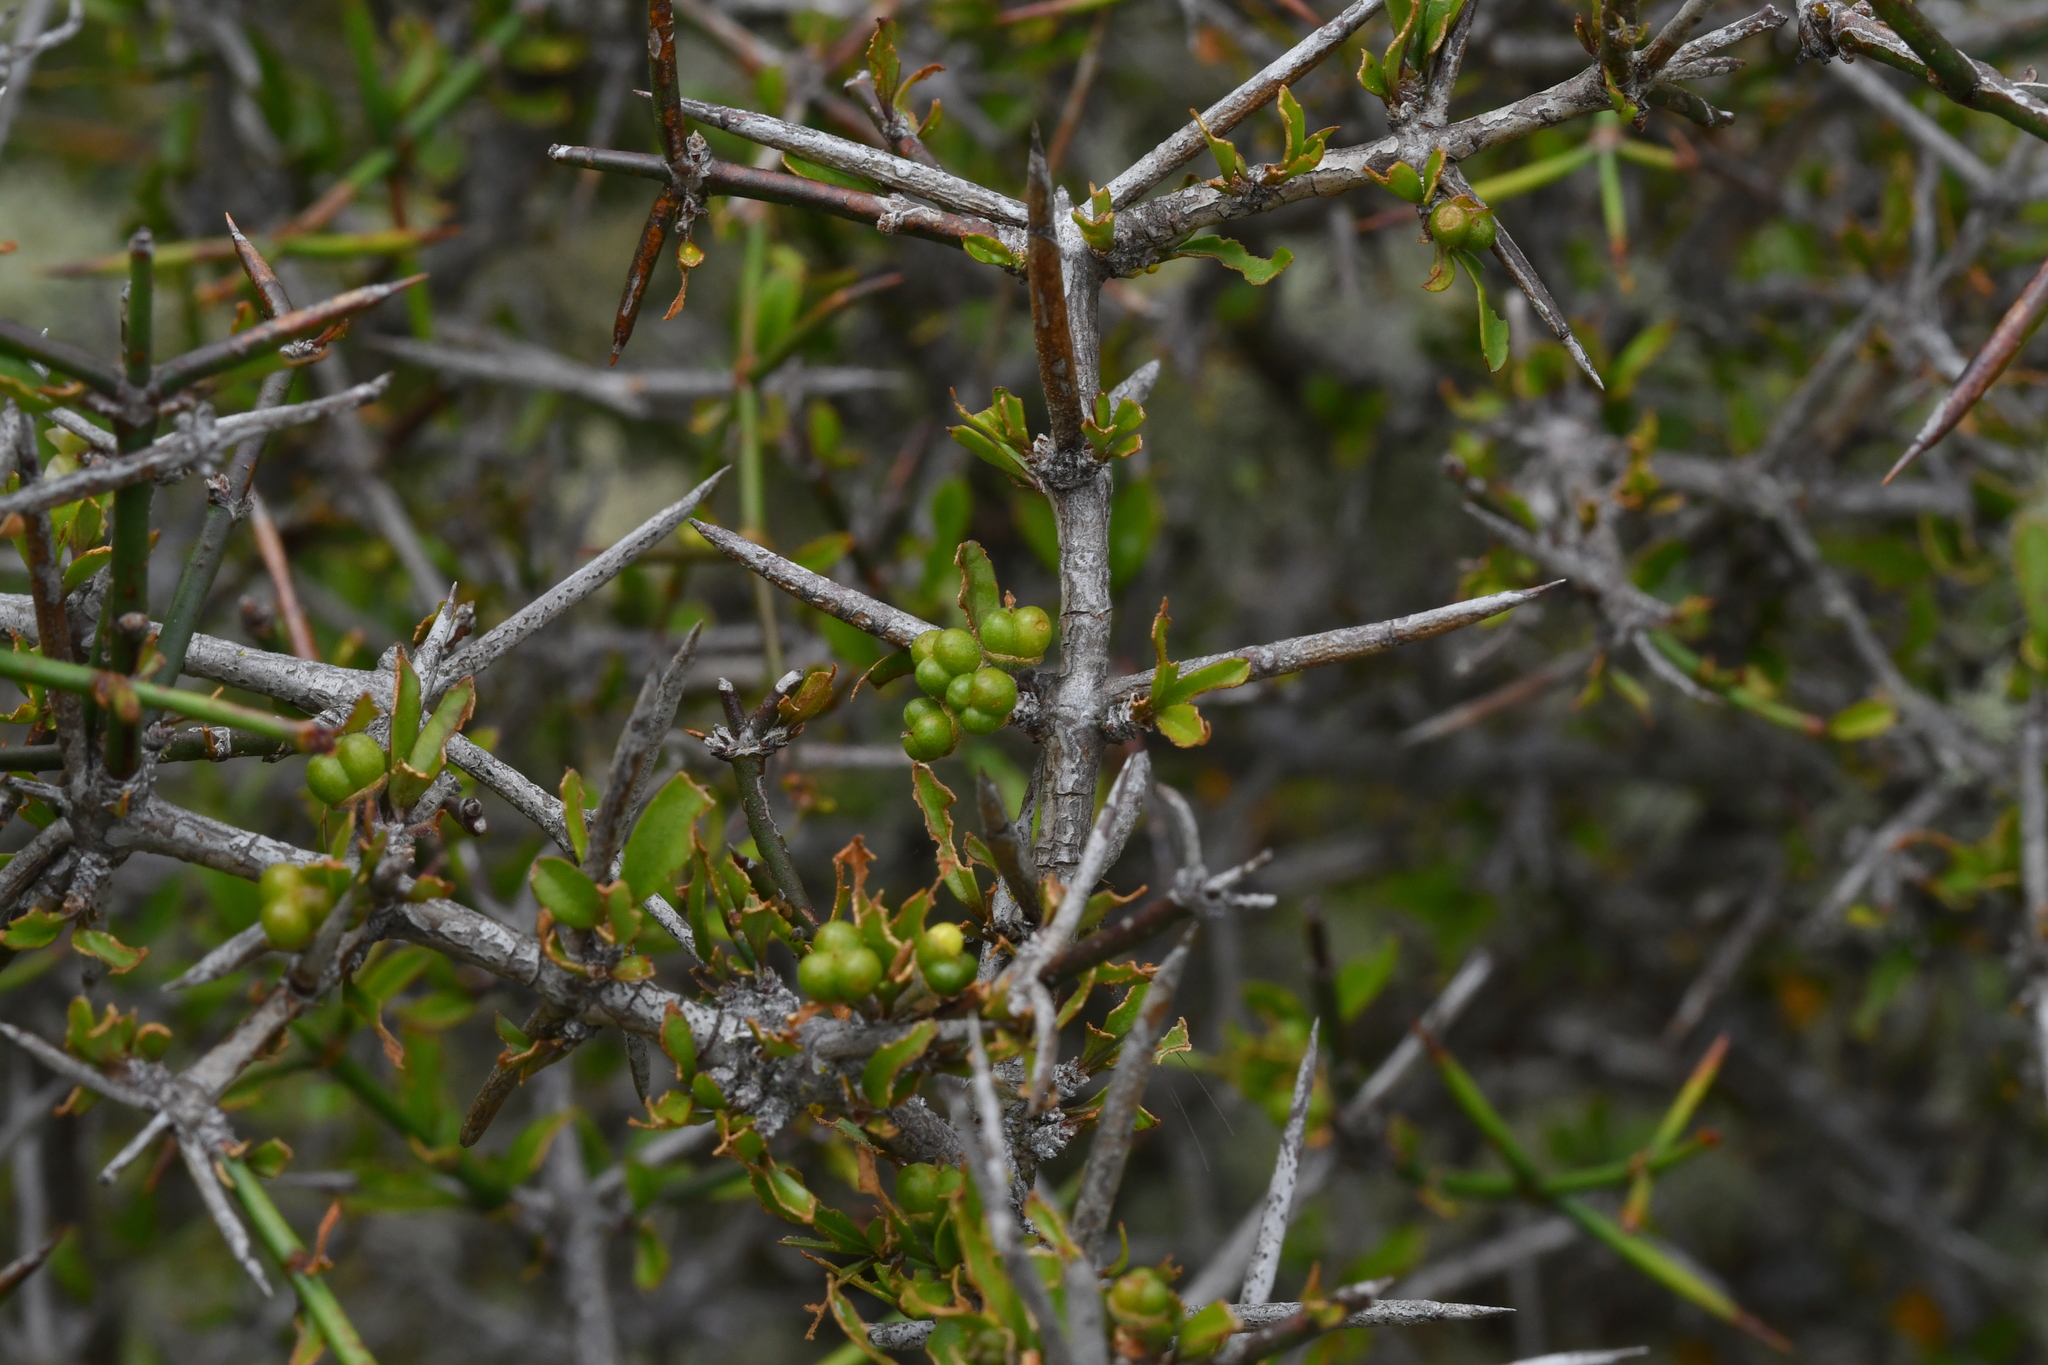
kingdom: Plantae
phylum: Tracheophyta
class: Magnoliopsida
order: Rosales
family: Rhamnaceae
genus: Discaria
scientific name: Discaria toumatou
